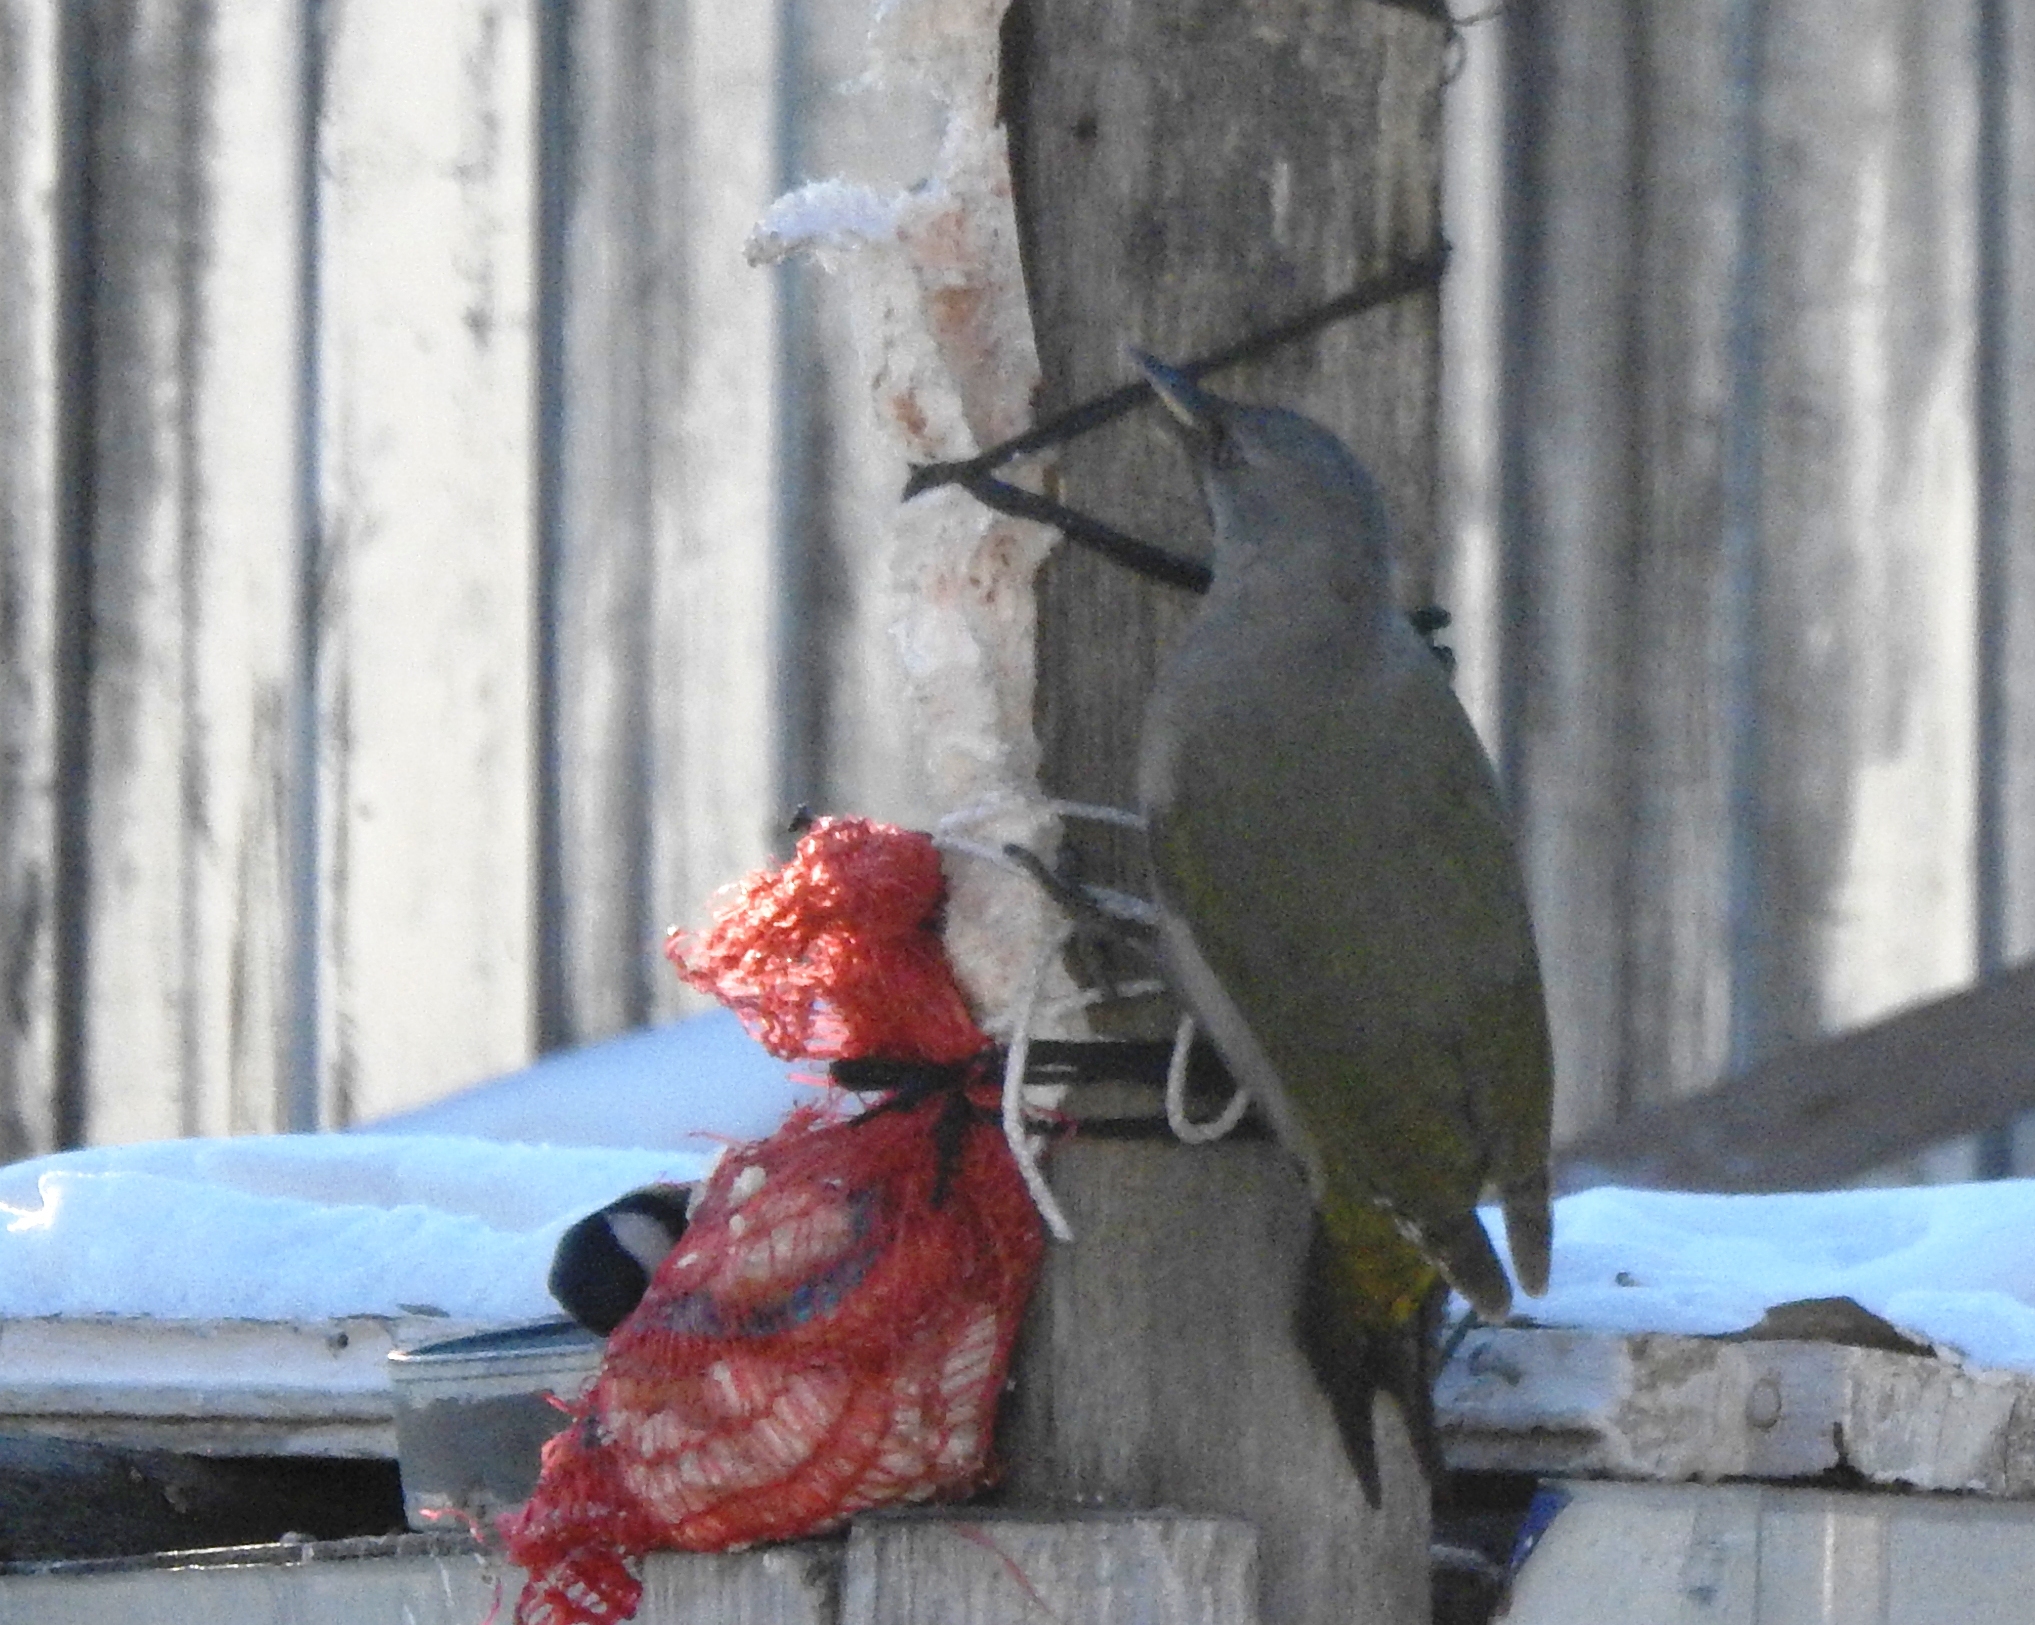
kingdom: Animalia
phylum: Chordata
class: Aves
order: Piciformes
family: Picidae
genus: Picus
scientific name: Picus canus
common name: Grey-headed woodpecker
